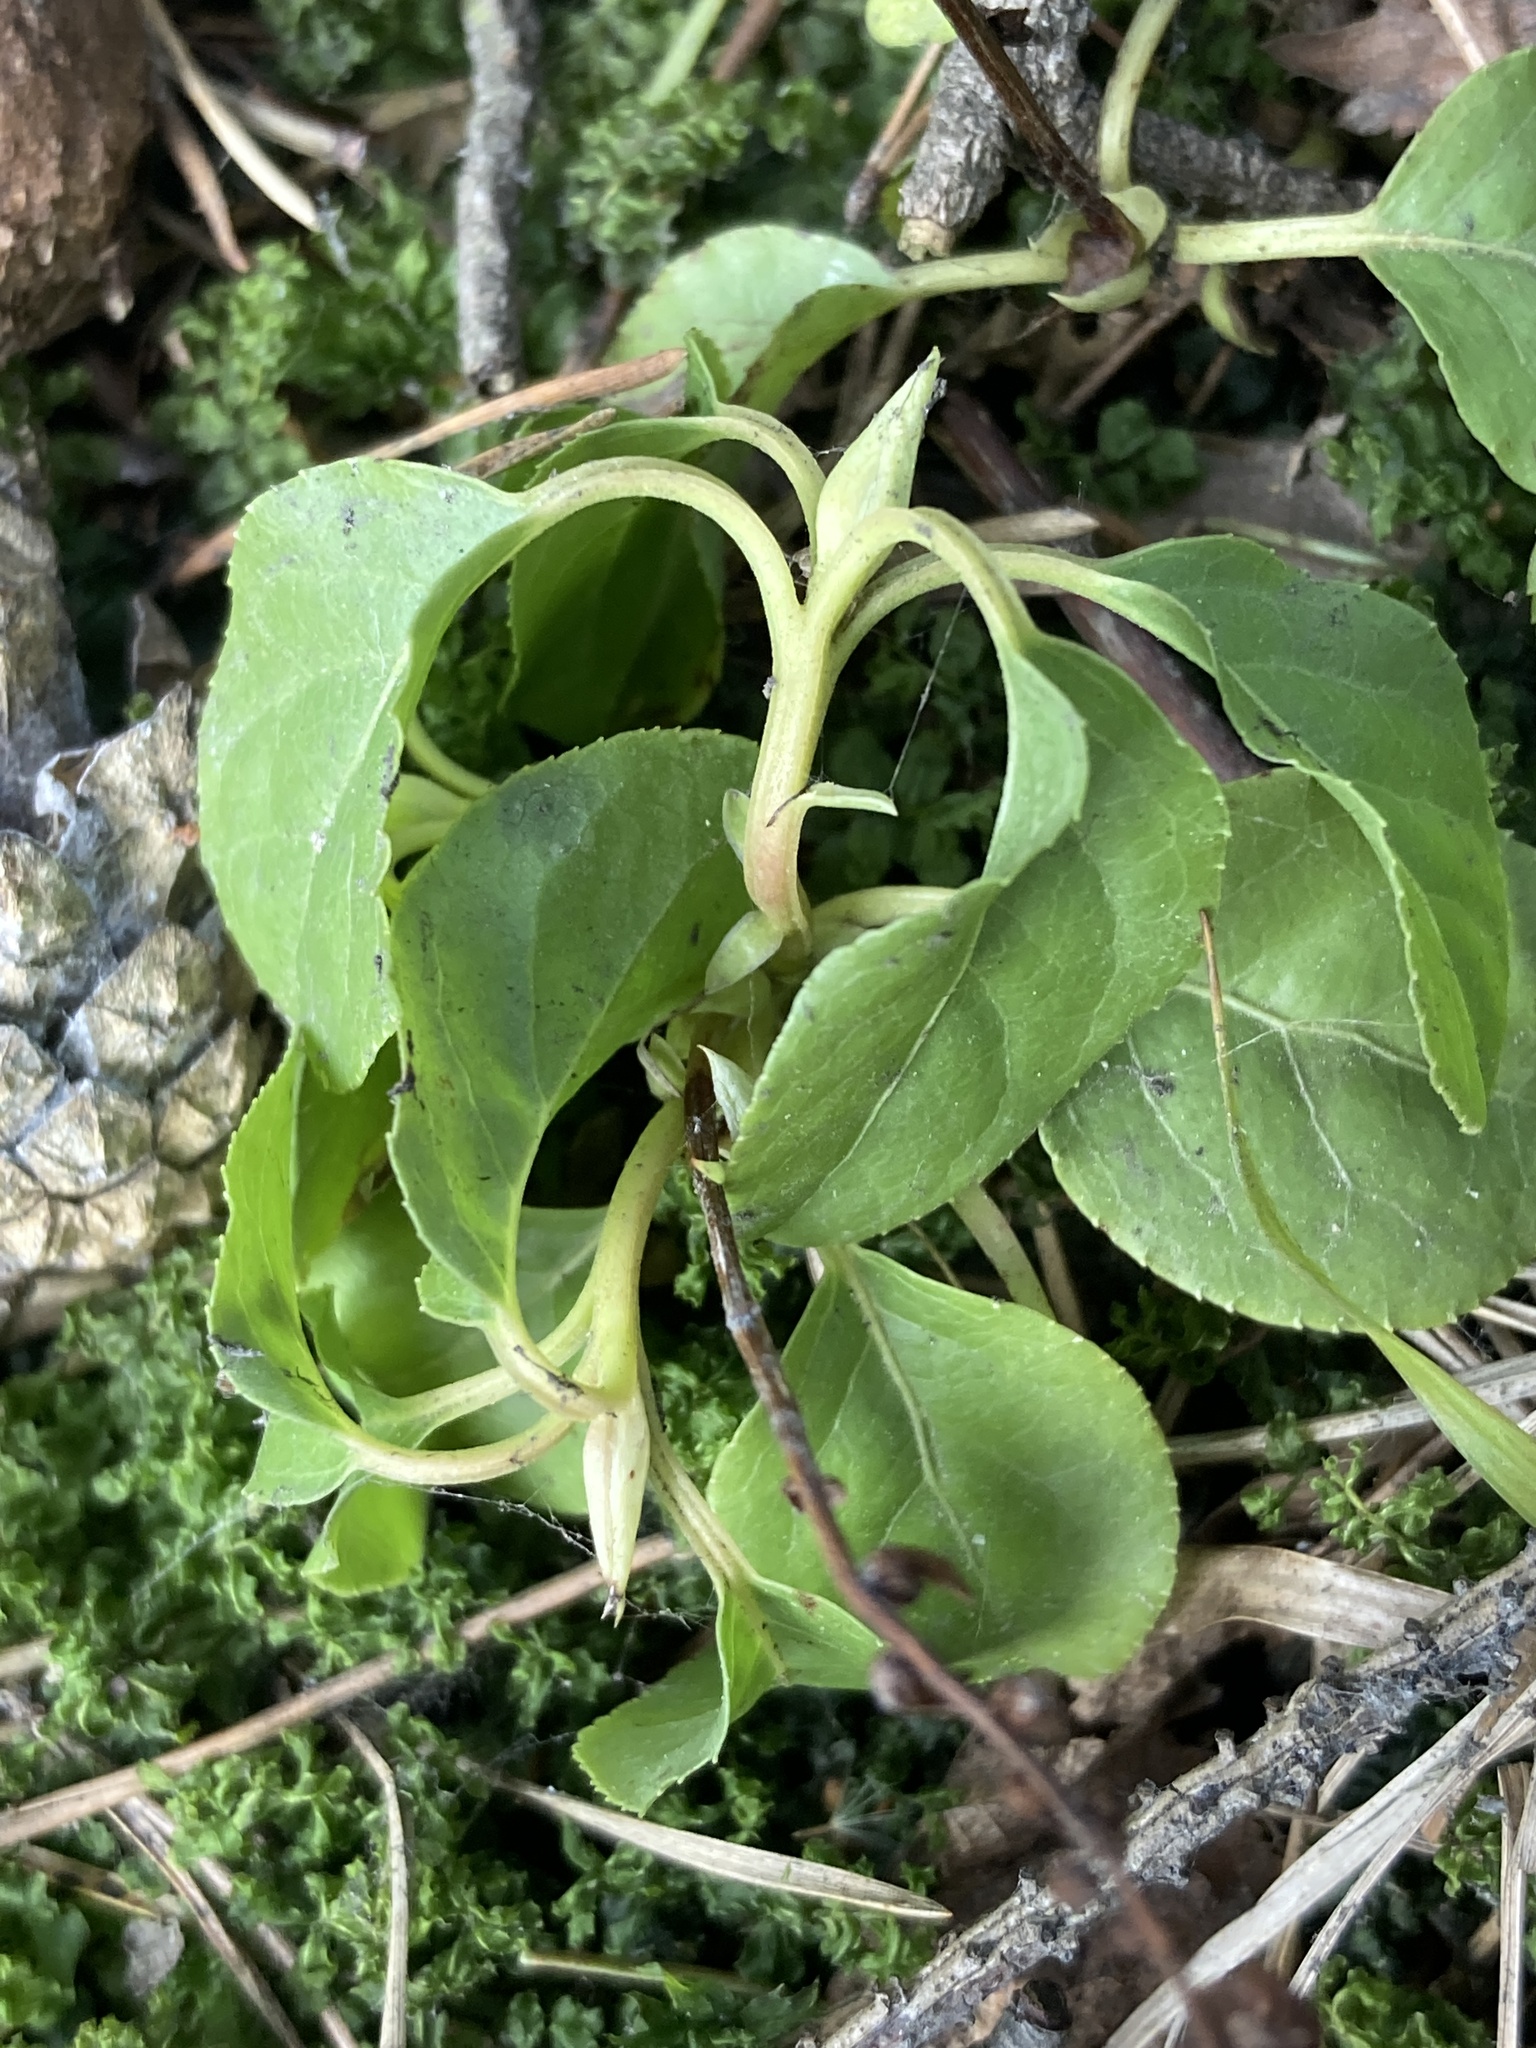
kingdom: Plantae
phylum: Tracheophyta
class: Magnoliopsida
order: Ericales
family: Ericaceae
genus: Orthilia
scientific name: Orthilia secunda
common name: One-sided orthilia
